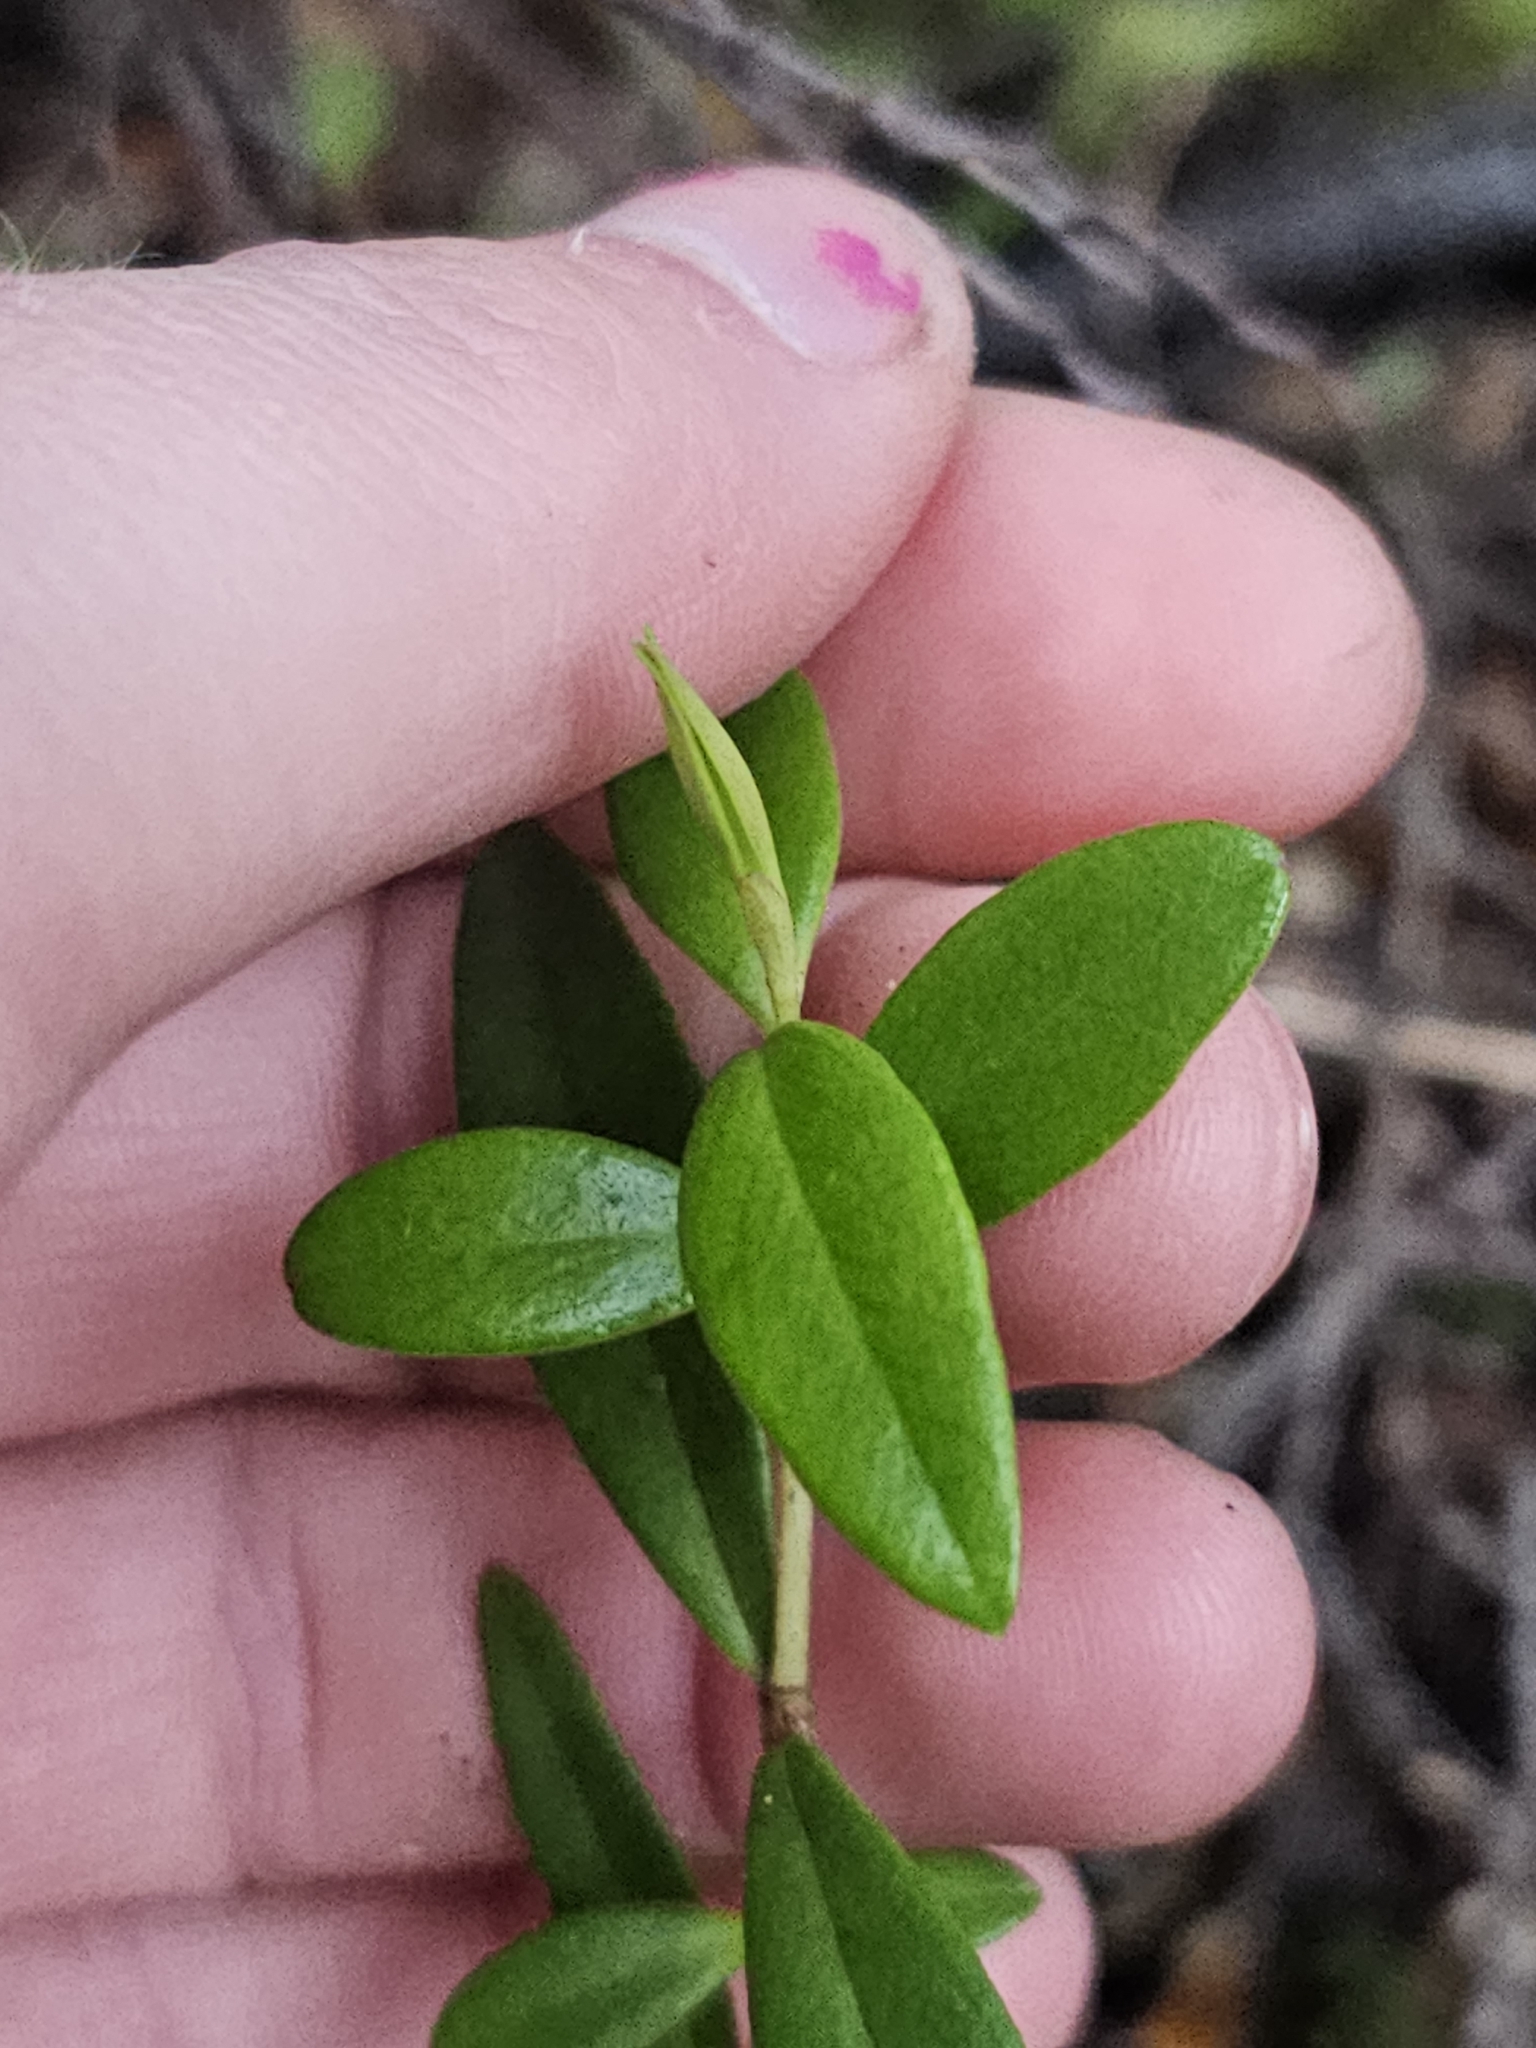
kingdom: Plantae
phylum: Tracheophyta
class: Magnoliopsida
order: Myrtales
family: Myrtaceae
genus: Metrosideros
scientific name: Metrosideros umbellata
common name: Southern rata
